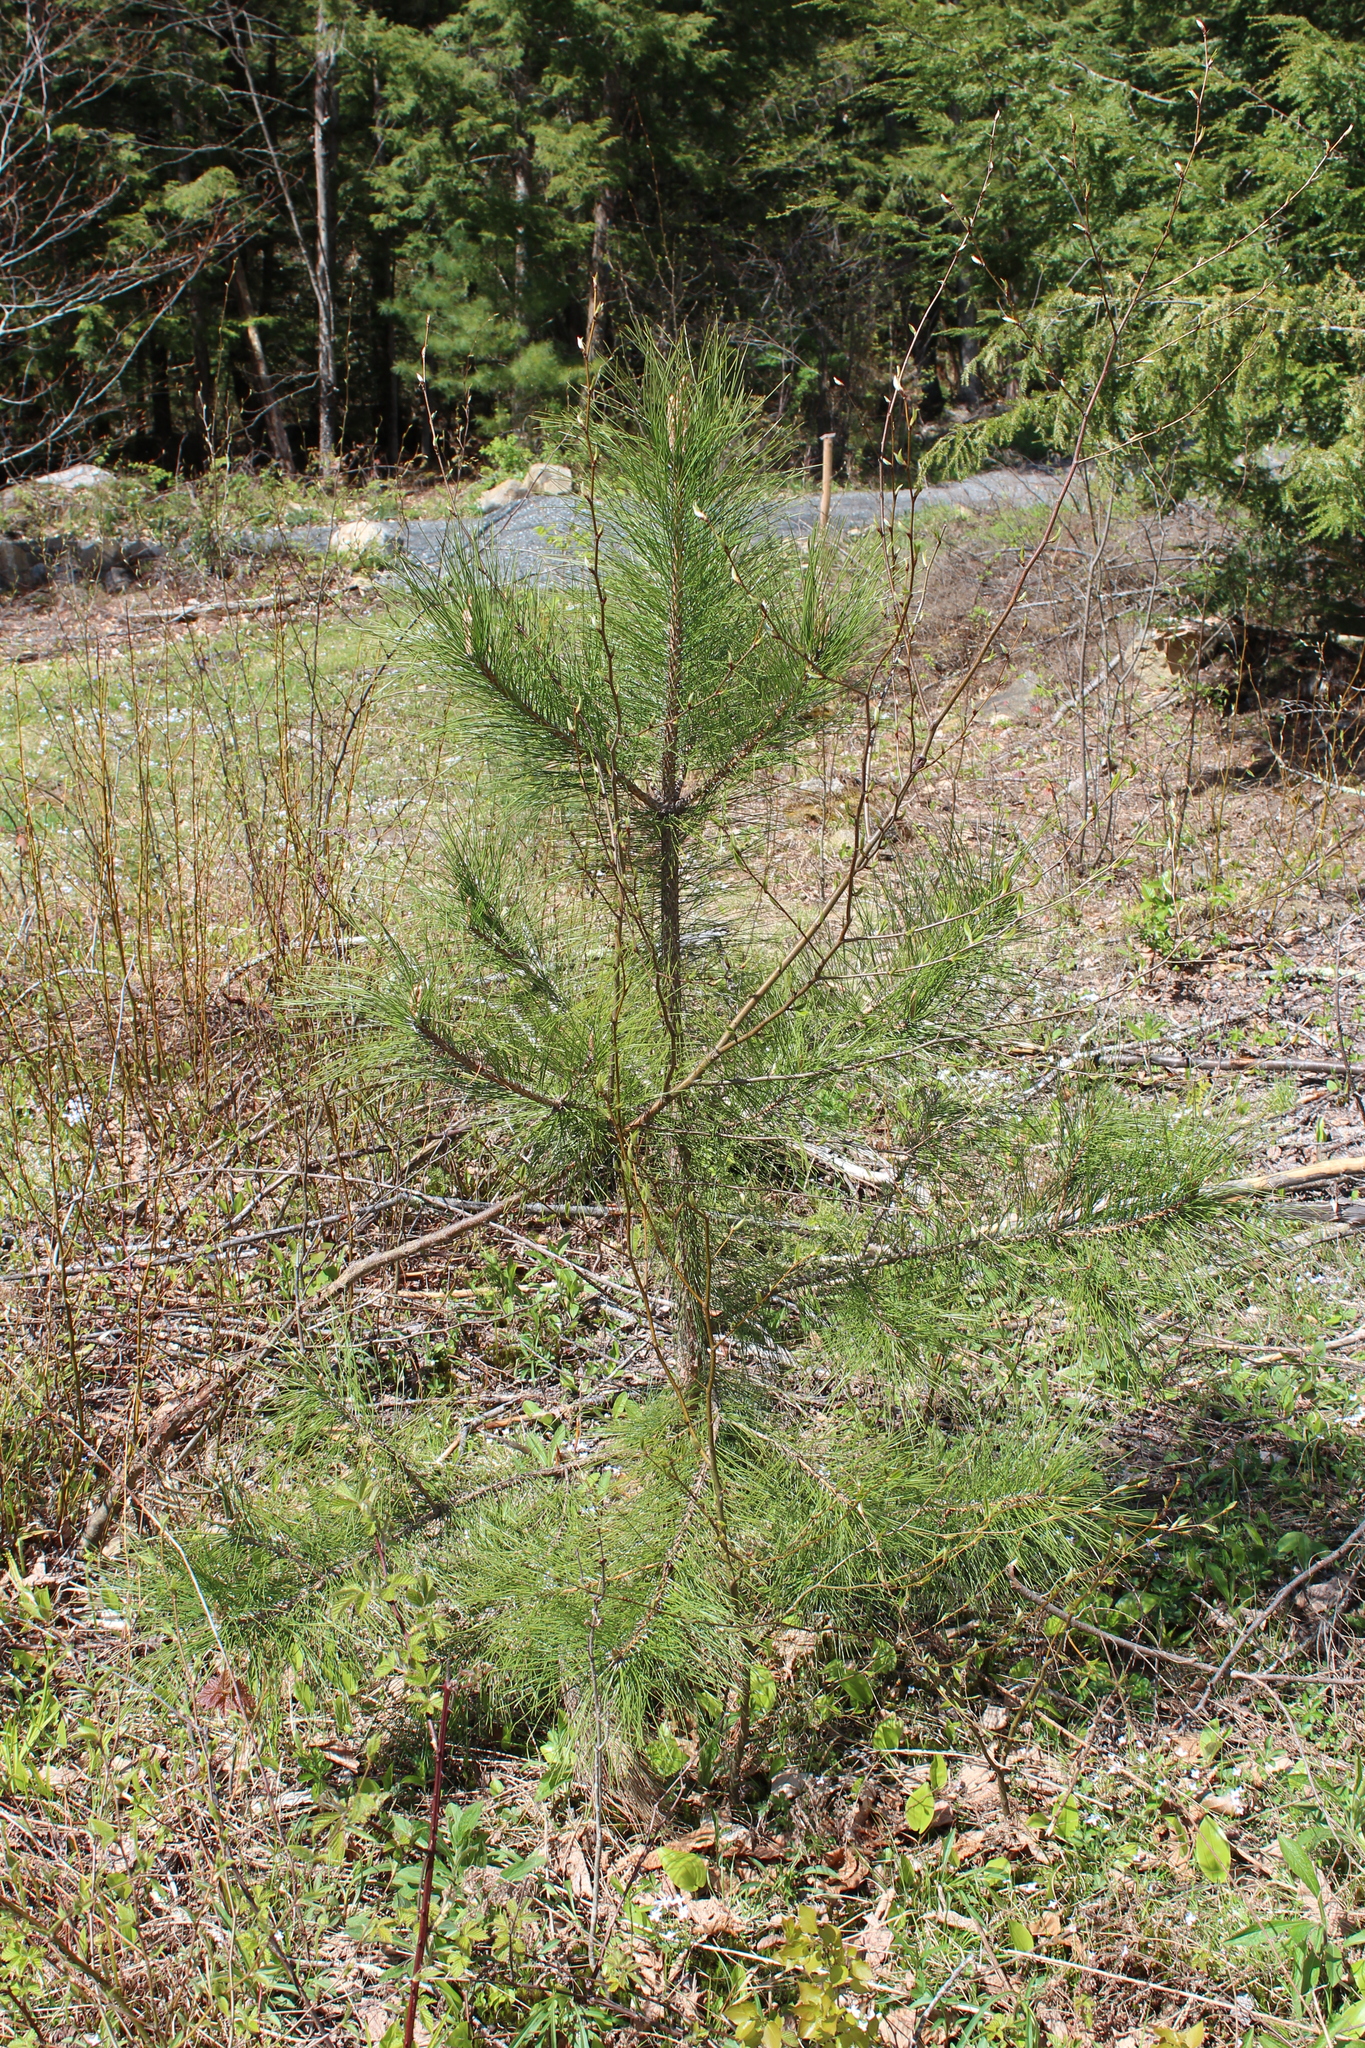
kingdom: Plantae
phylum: Tracheophyta
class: Pinopsida
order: Pinales
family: Pinaceae
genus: Pinus
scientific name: Pinus resinosa
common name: Norway pine
